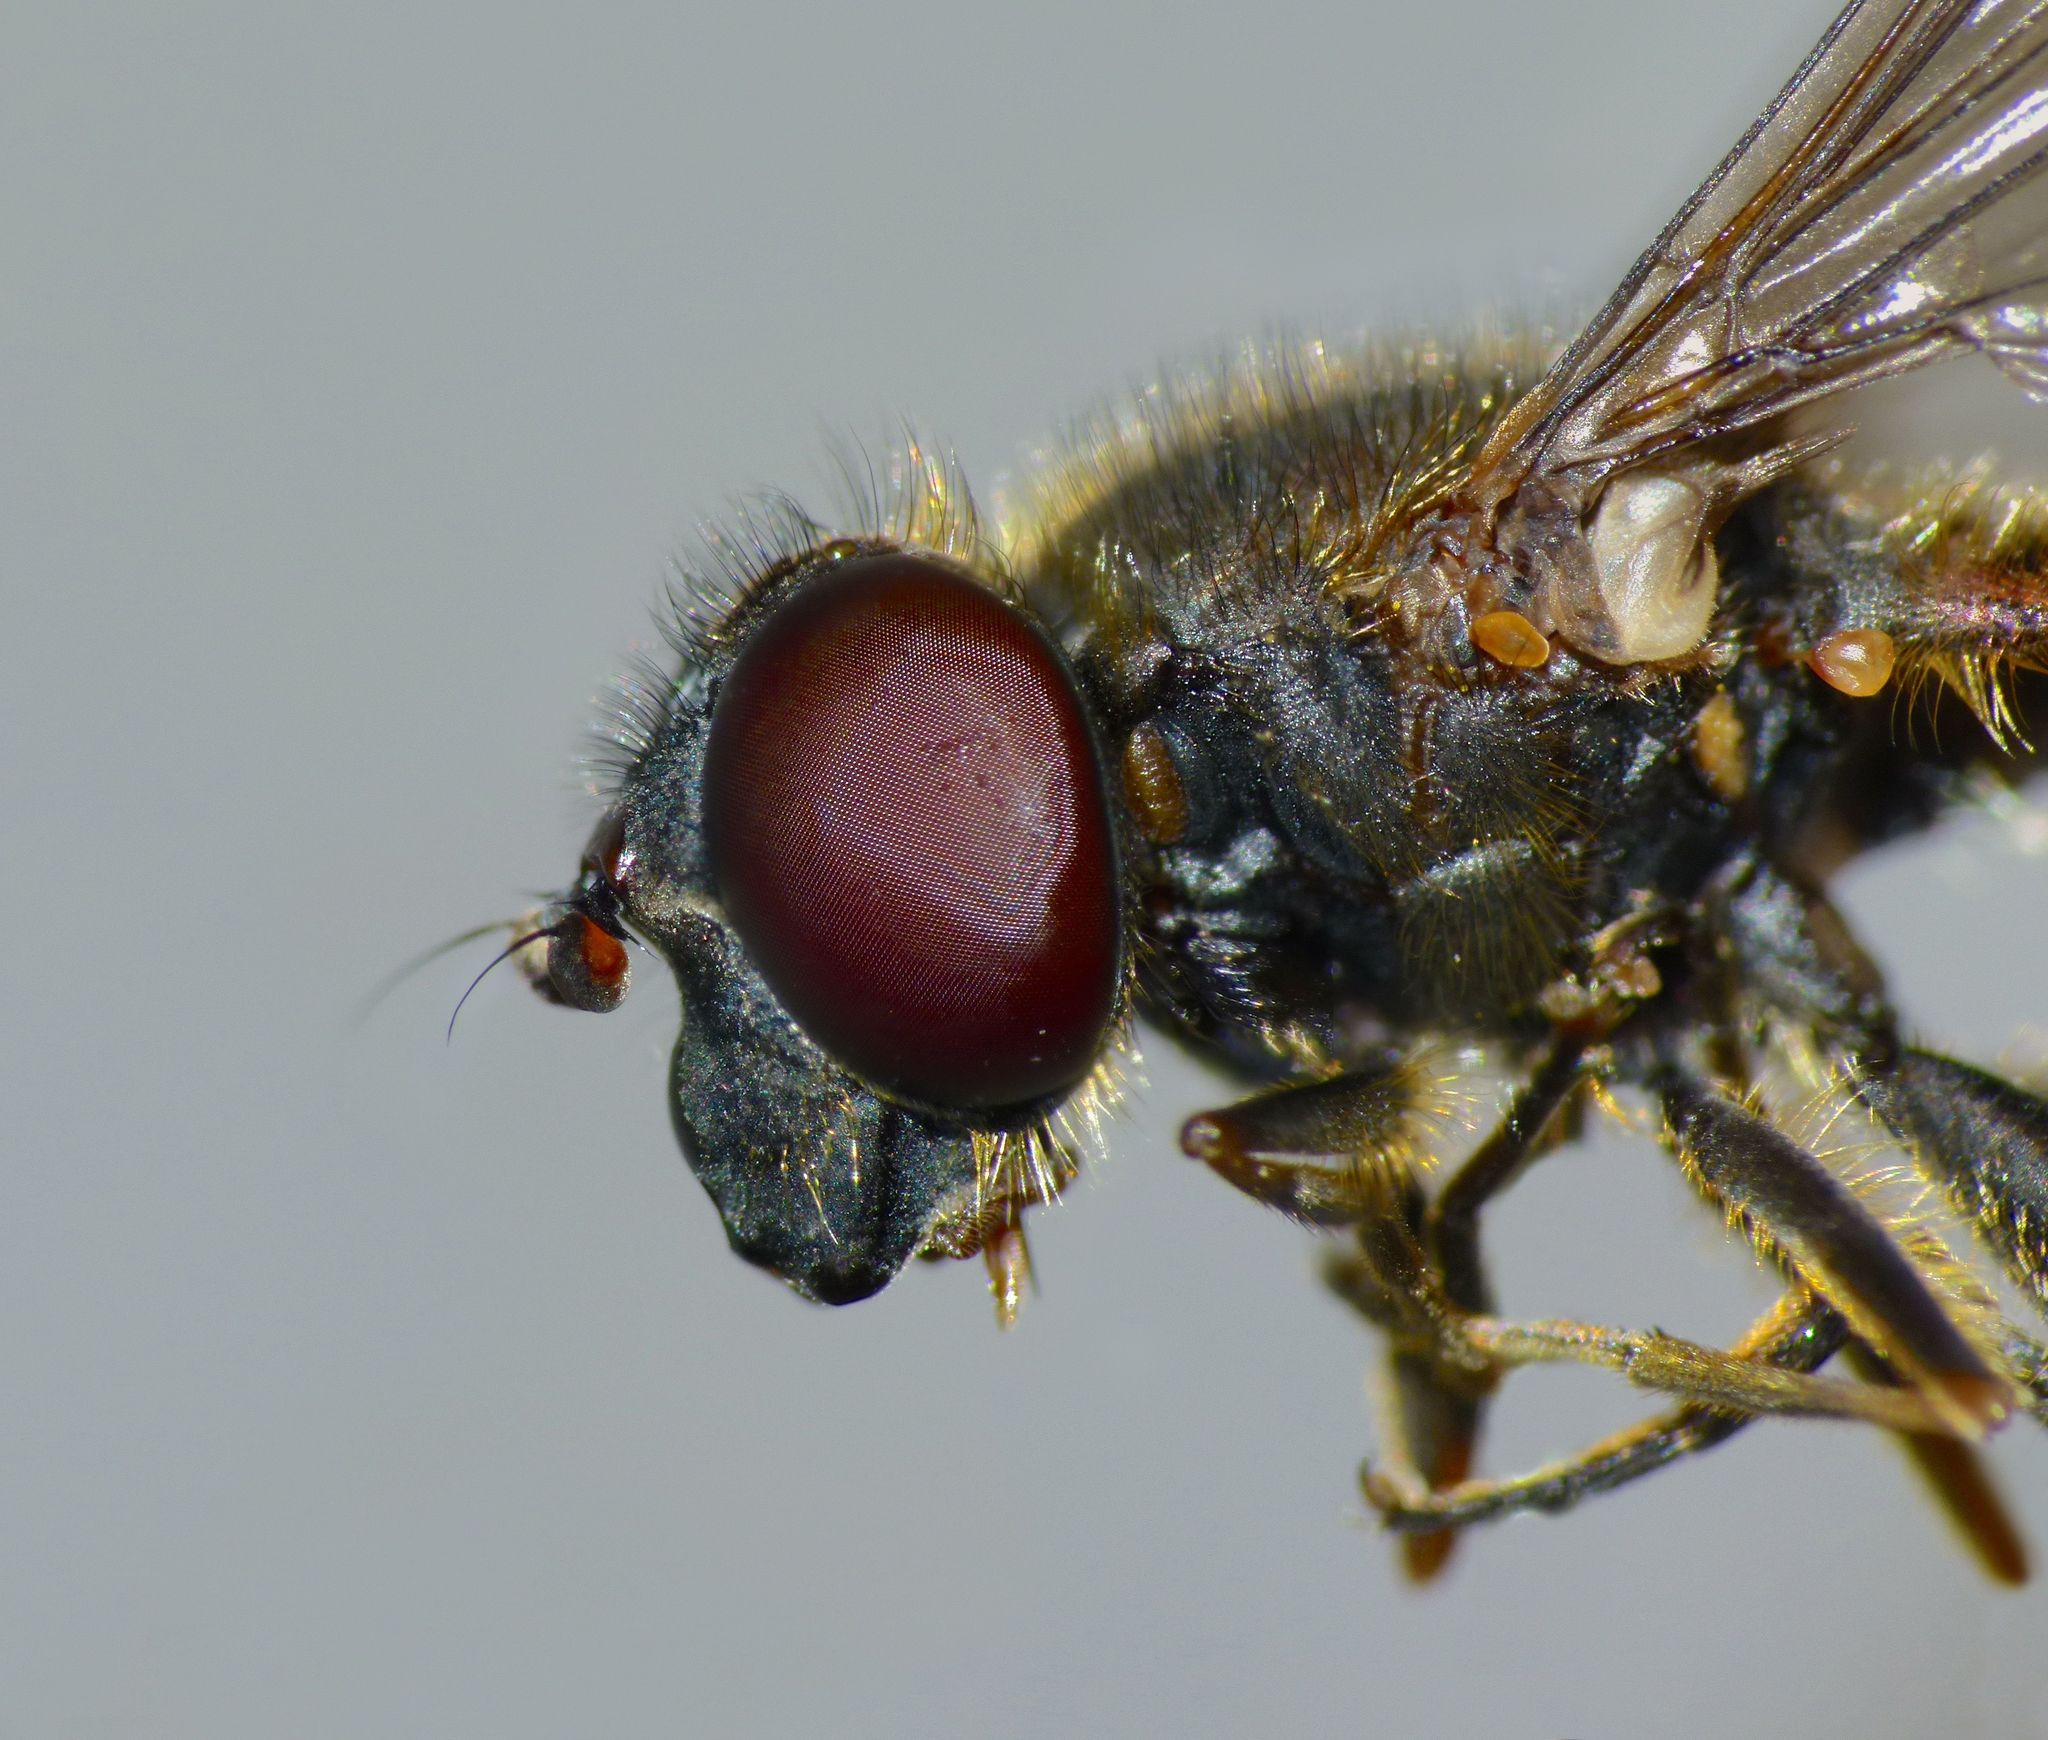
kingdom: Animalia
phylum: Arthropoda
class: Insecta
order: Diptera
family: Syrphidae
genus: Helophilus
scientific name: Helophilus chathamensis
